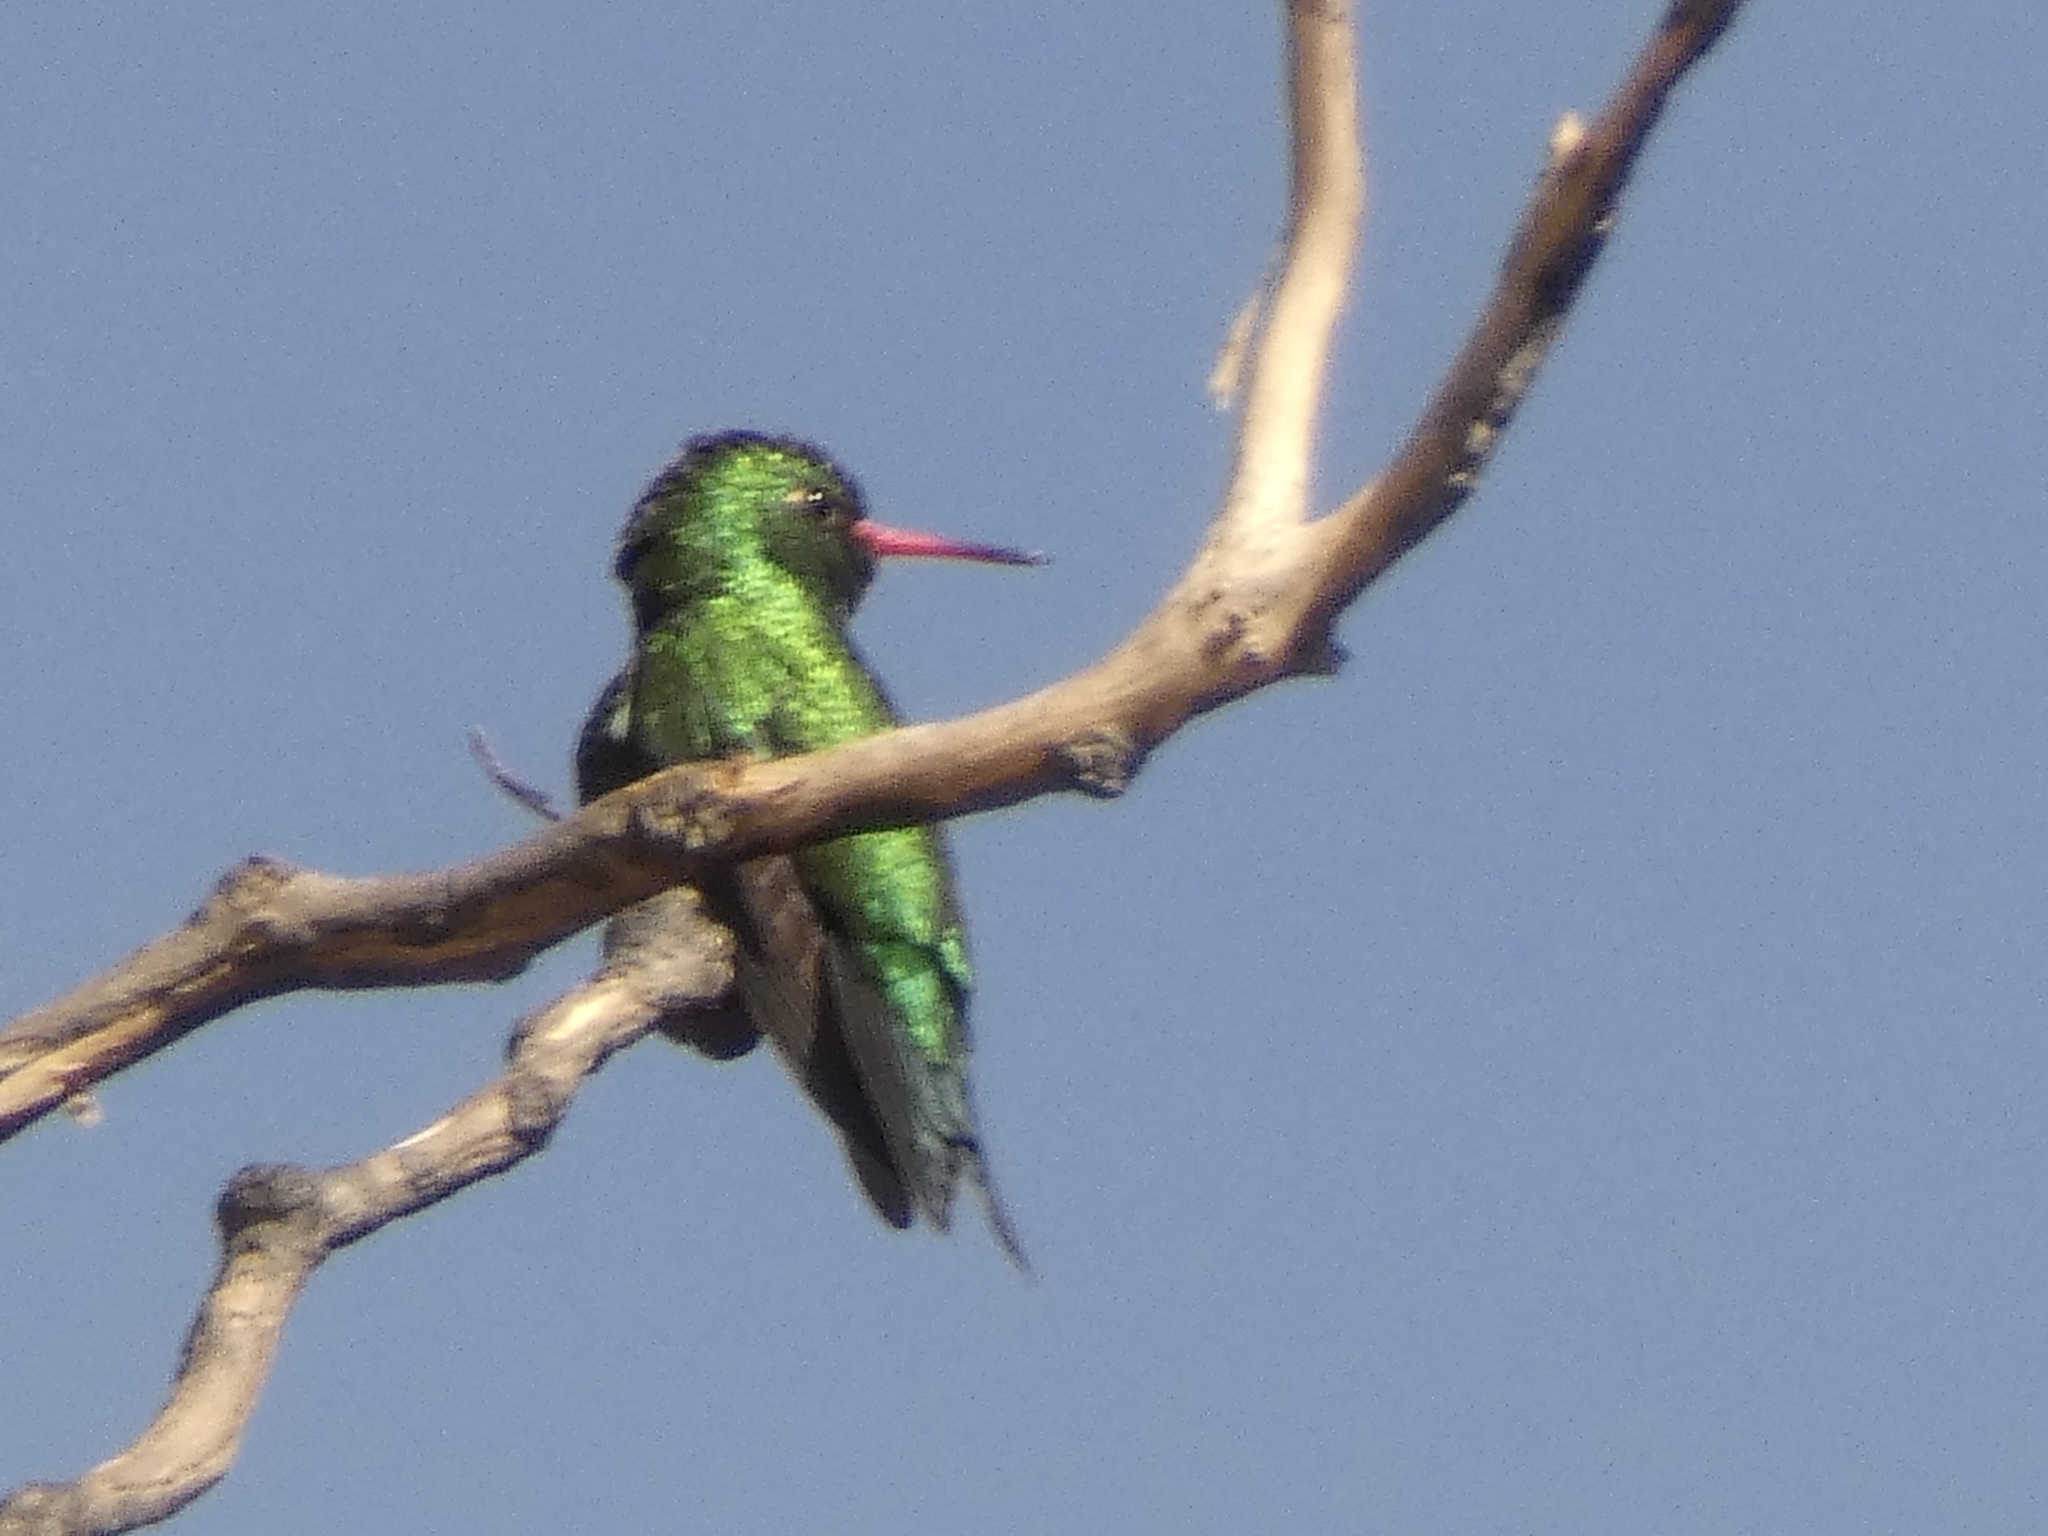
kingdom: Animalia
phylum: Chordata
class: Aves
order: Apodiformes
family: Trochilidae
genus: Chlorostilbon
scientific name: Chlorostilbon lucidus
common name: Glittering-bellied emerald
